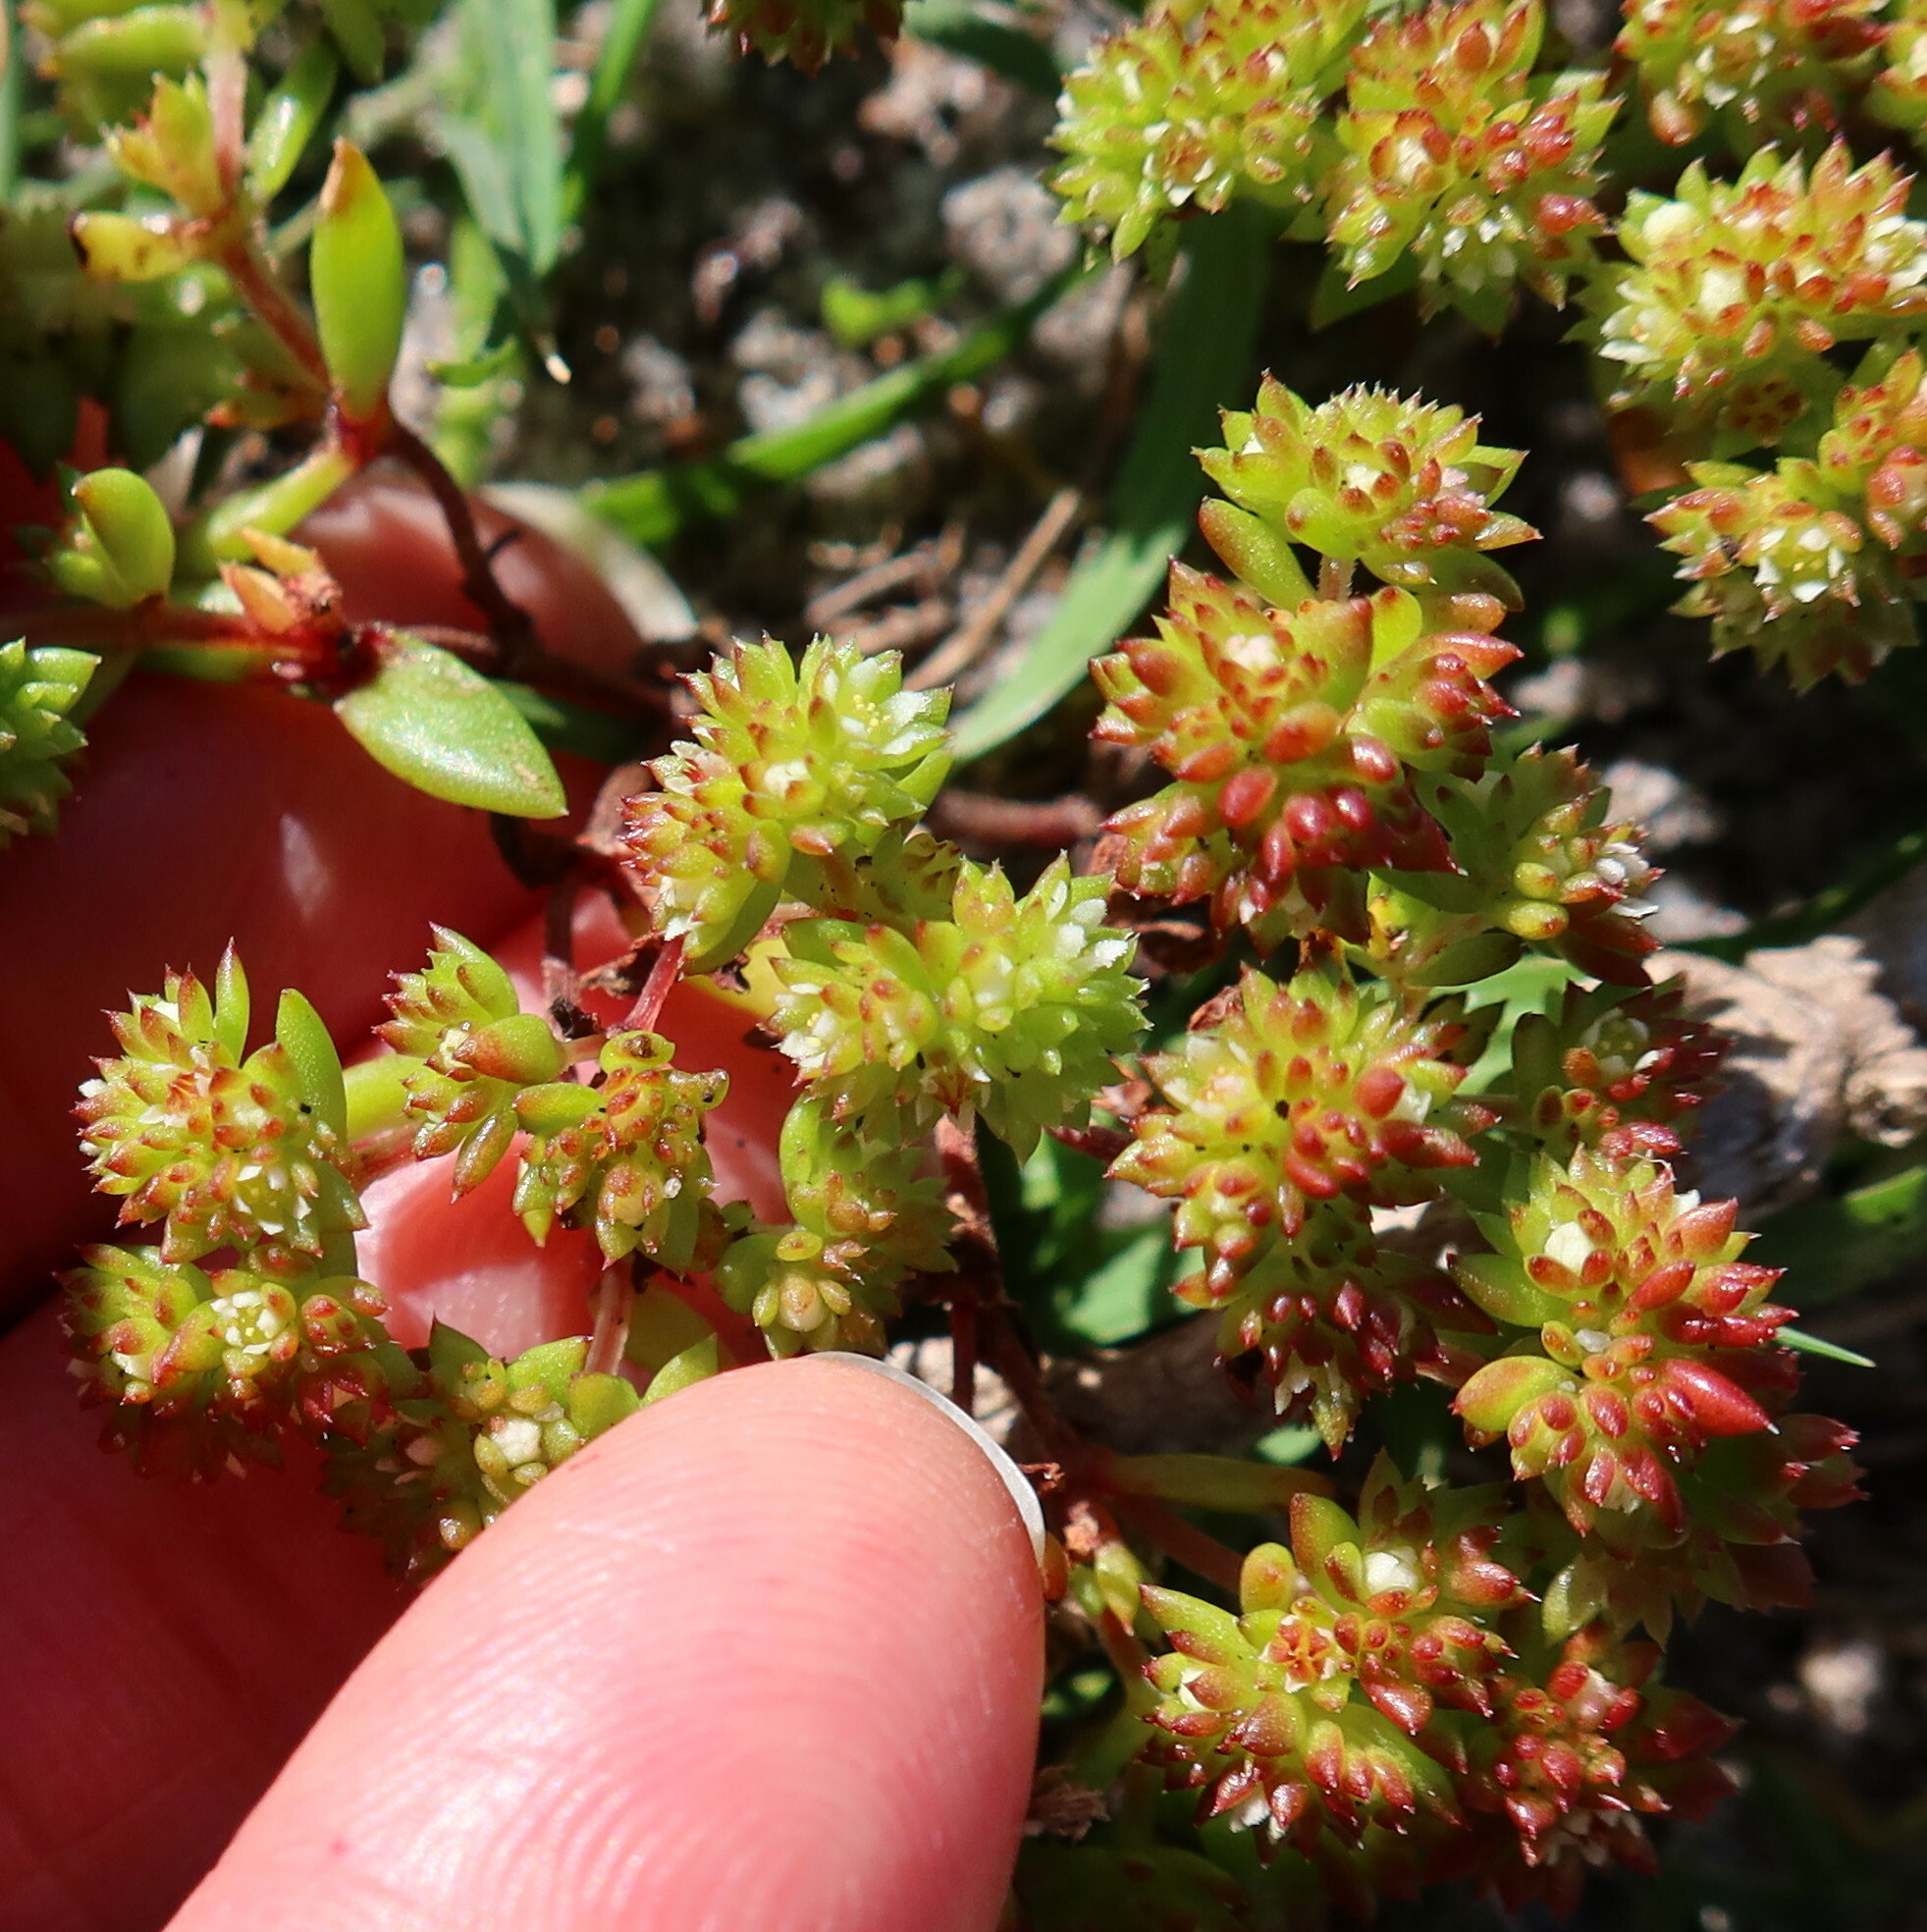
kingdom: Plantae
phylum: Tracheophyta
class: Magnoliopsida
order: Saxifragales
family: Crassulaceae
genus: Crassula
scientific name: Crassula glomerata
